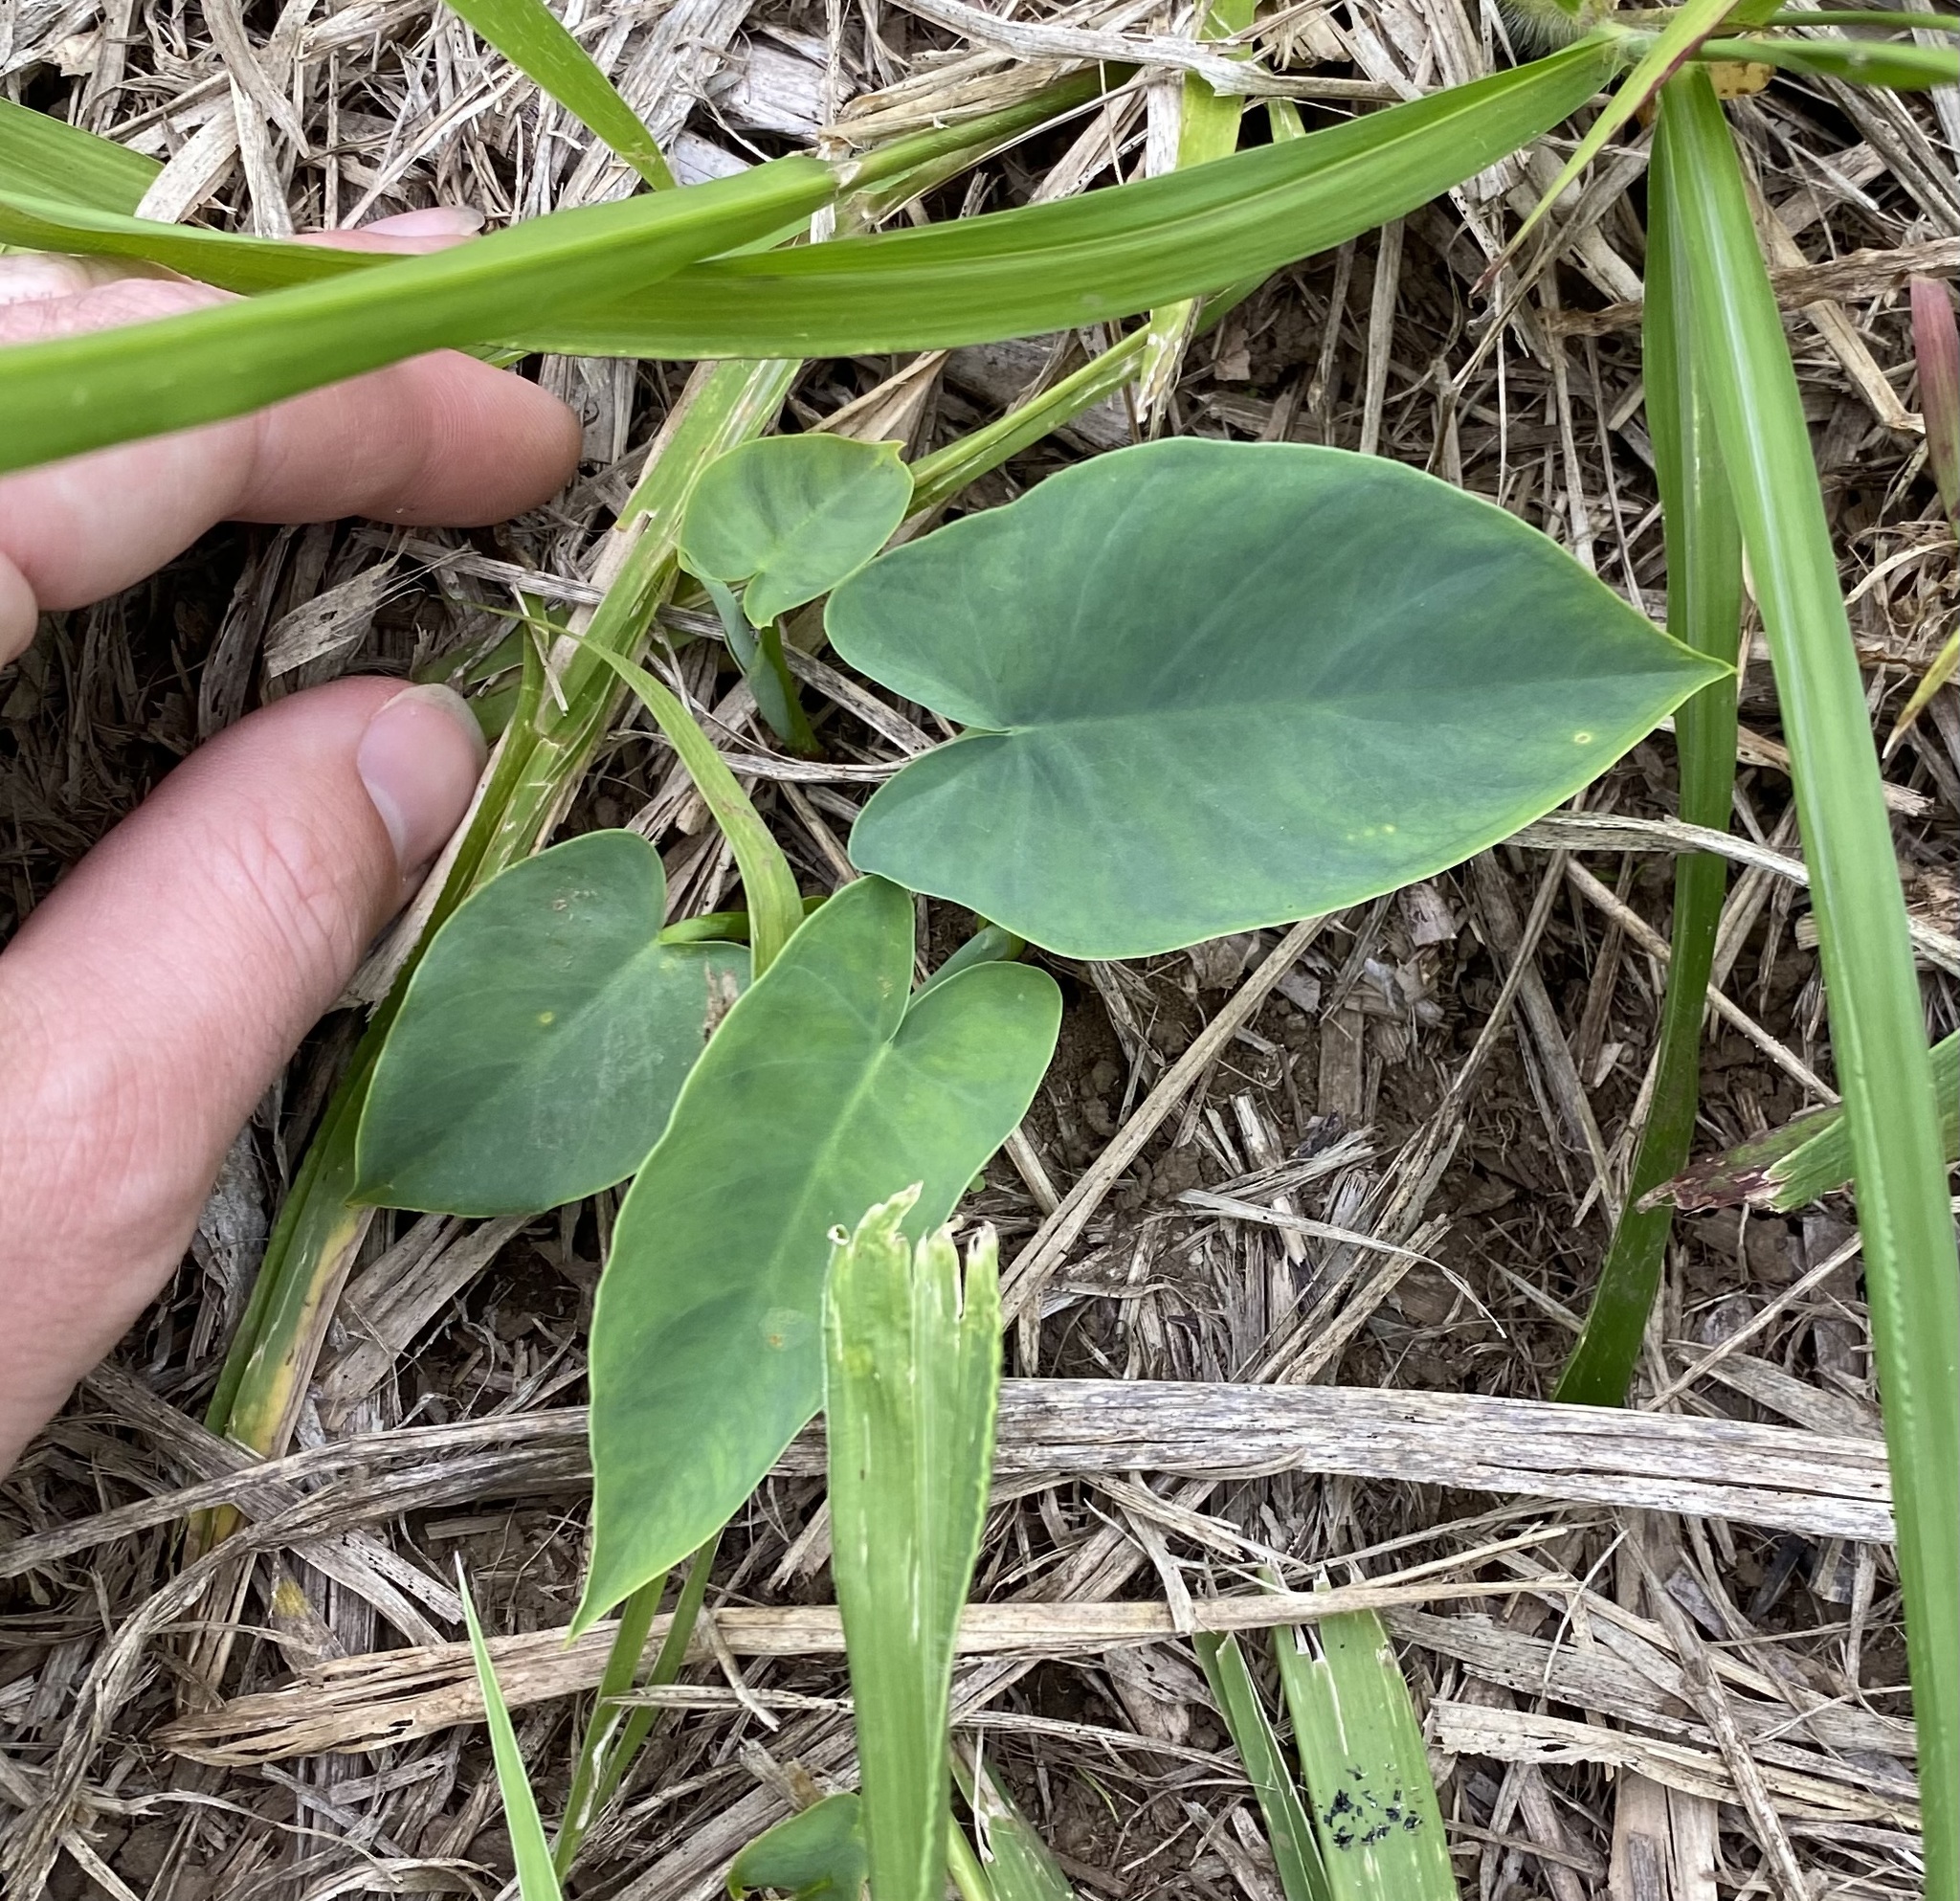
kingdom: Plantae
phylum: Tracheophyta
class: Liliopsida
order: Alismatales
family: Araceae
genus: Colocasia
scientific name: Colocasia esculenta
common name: Taro
